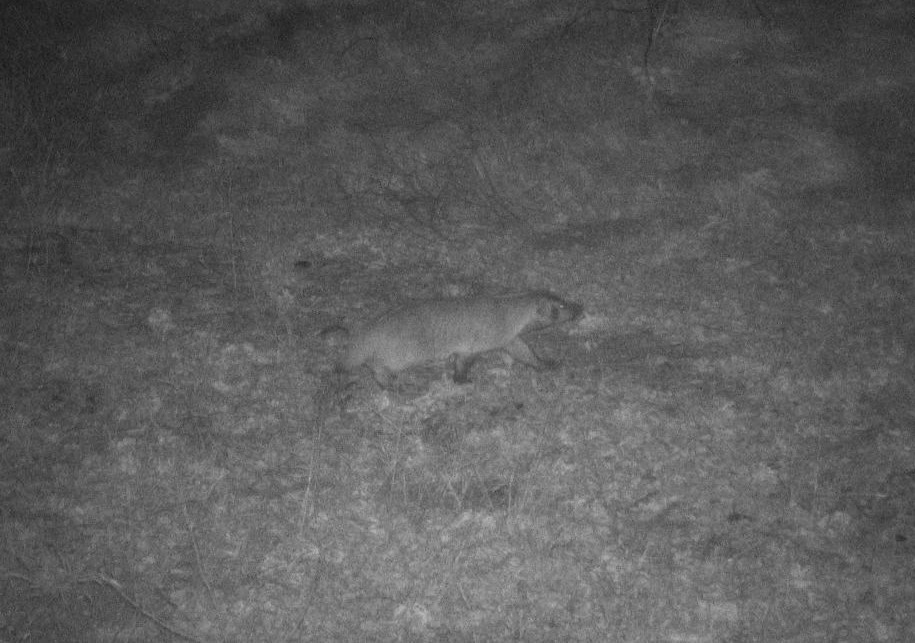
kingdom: Animalia
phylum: Chordata
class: Mammalia
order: Carnivora
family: Mustelidae
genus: Taxidea
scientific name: Taxidea taxus
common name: American badger
